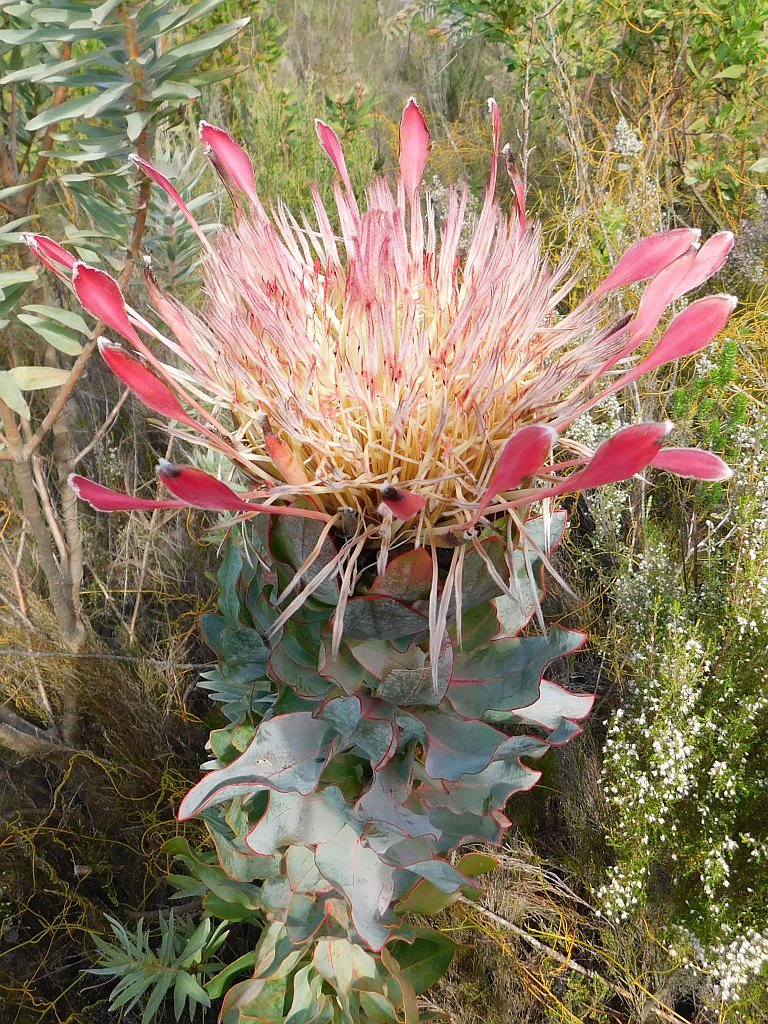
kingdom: Plantae
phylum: Tracheophyta
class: Magnoliopsida
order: Proteales
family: Proteaceae
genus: Protea
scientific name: Protea eximia
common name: Broad-leaved sugarbush
